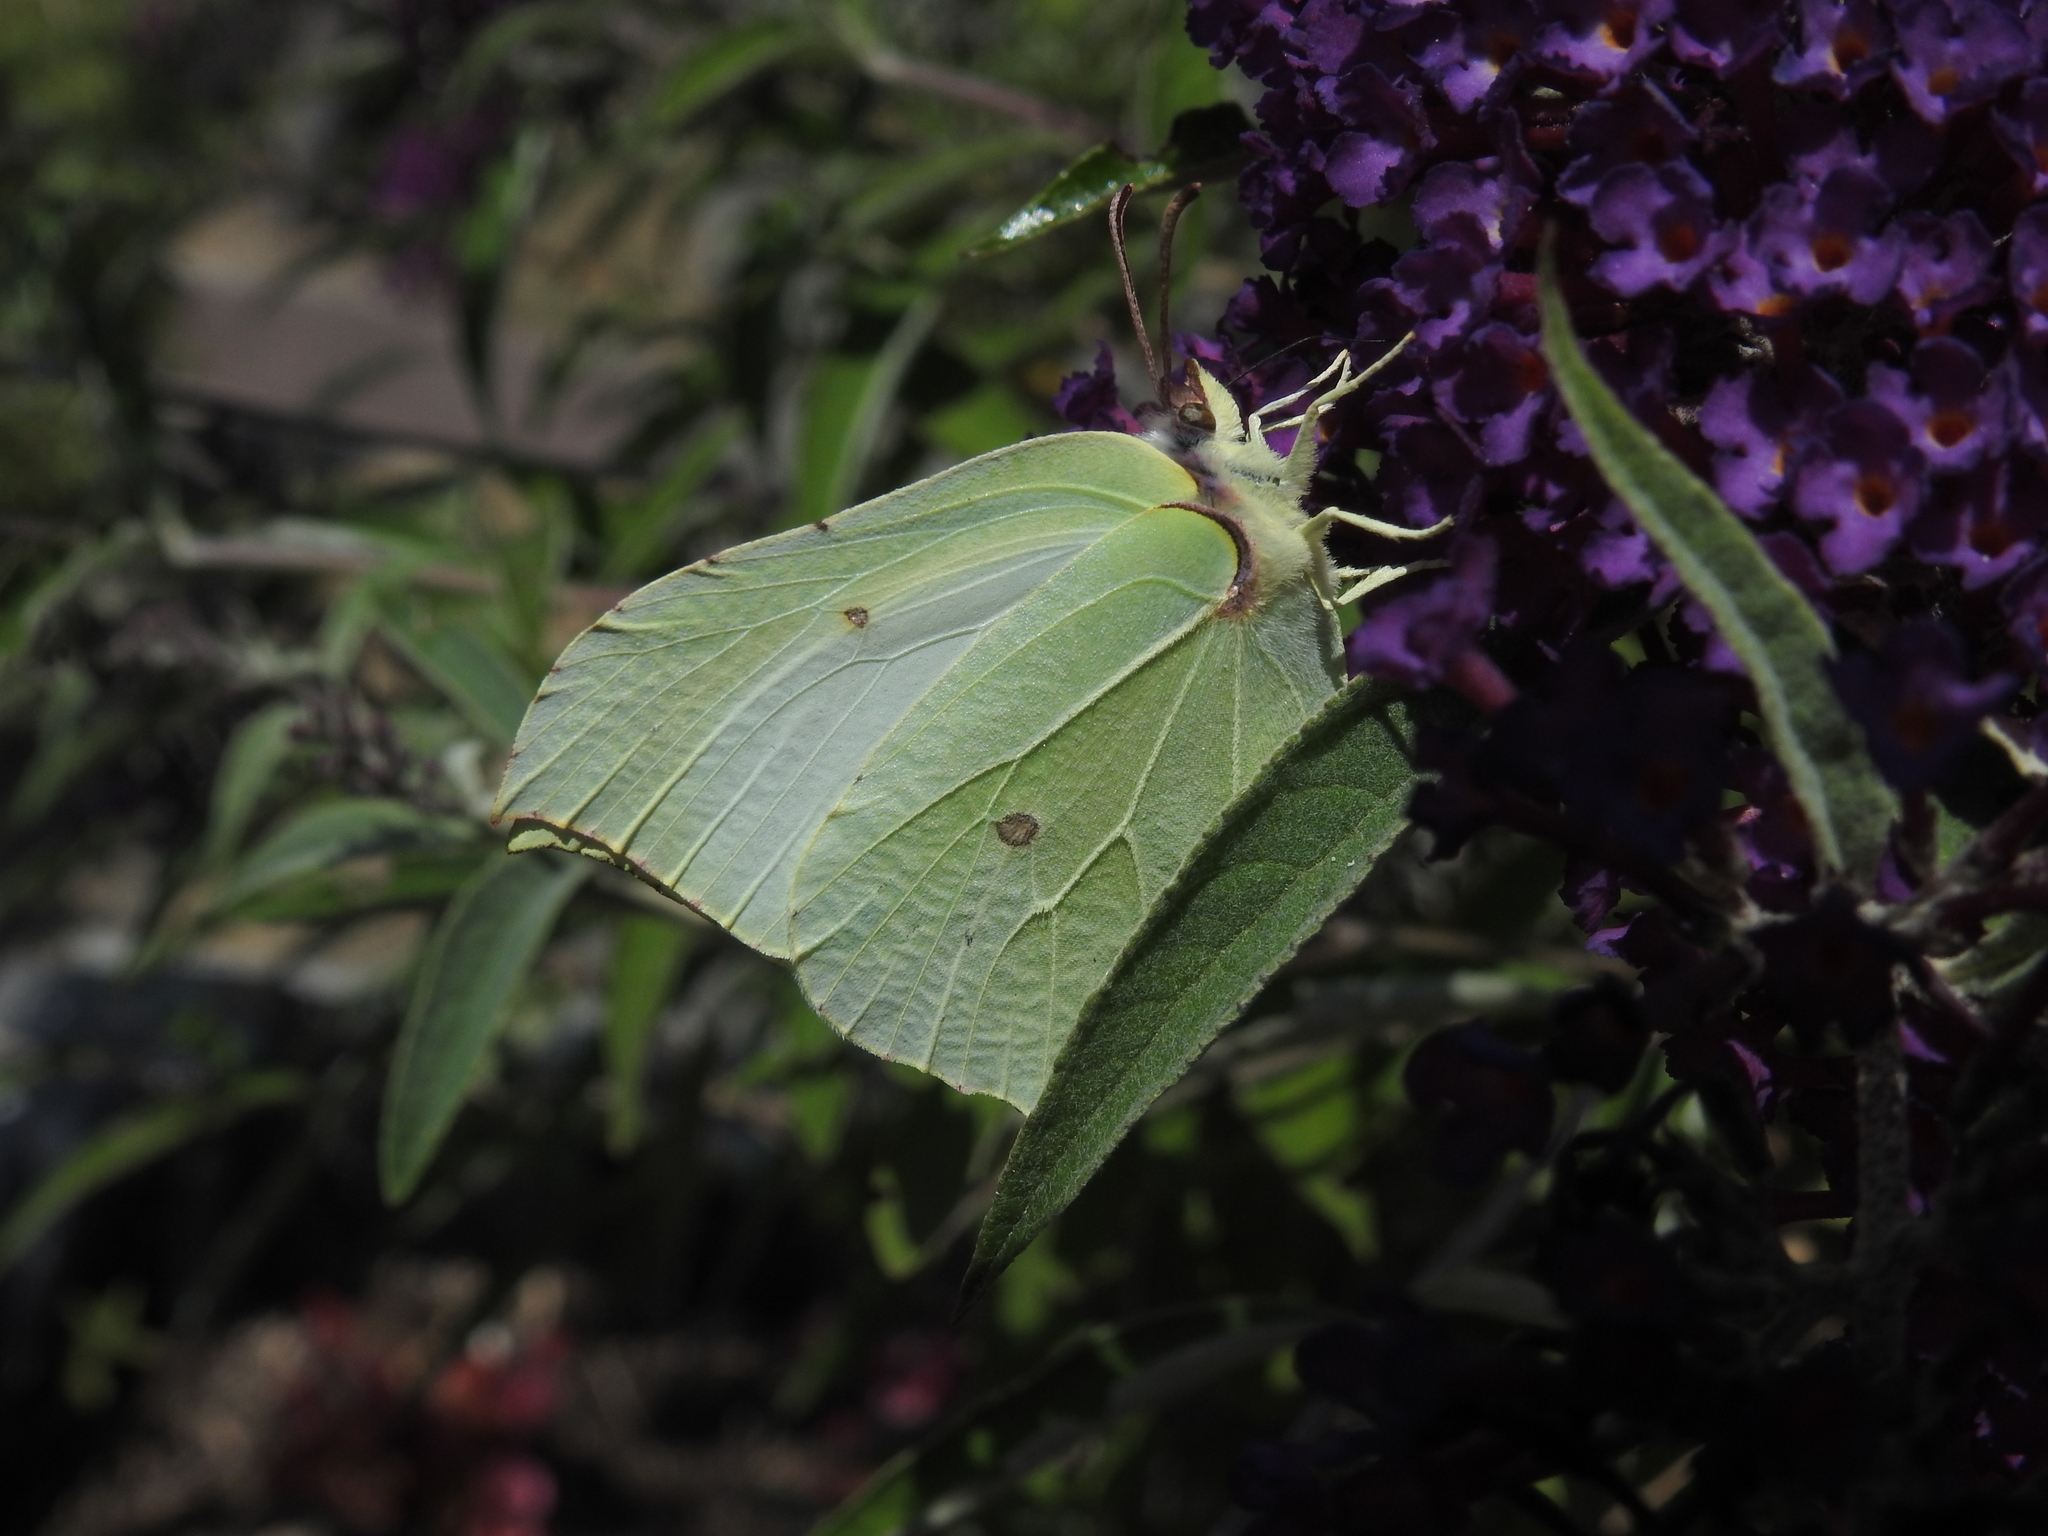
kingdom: Animalia
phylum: Arthropoda
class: Insecta
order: Lepidoptera
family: Pieridae
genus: Gonepteryx
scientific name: Gonepteryx rhamni
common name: Brimstone
